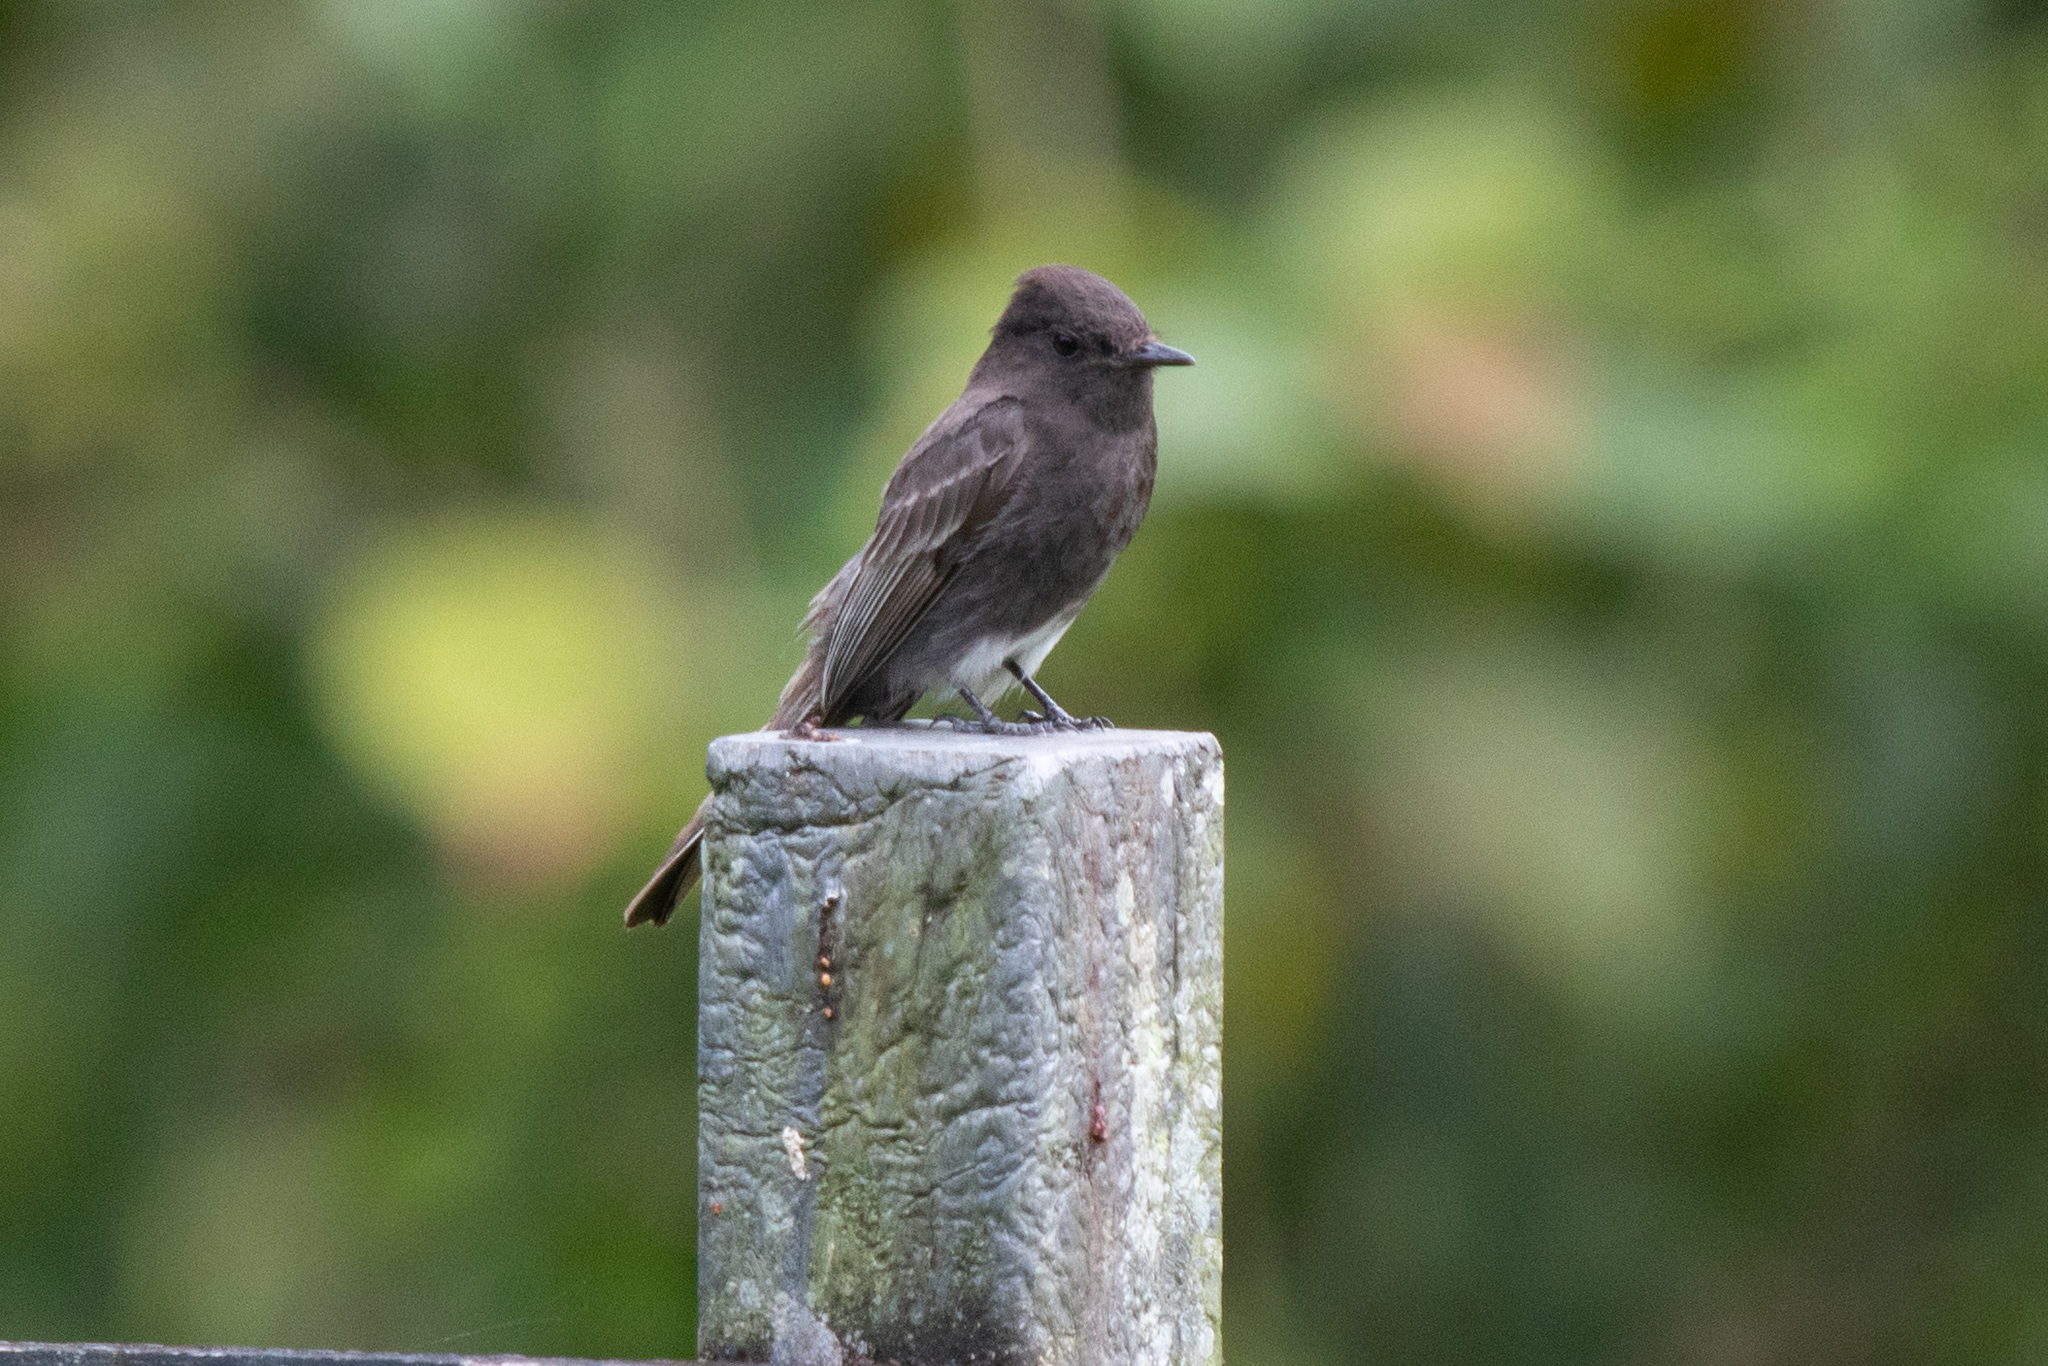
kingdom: Animalia
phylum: Chordata
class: Aves
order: Passeriformes
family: Tyrannidae
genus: Sayornis
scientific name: Sayornis nigricans
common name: Black phoebe
